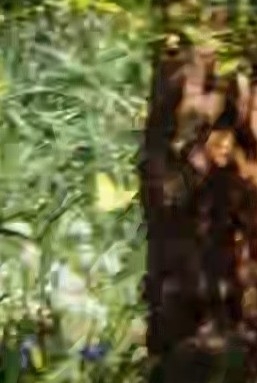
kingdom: Animalia
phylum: Arthropoda
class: Insecta
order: Lepidoptera
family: Pieridae
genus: Gonepteryx
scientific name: Gonepteryx rhamni
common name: Brimstone
